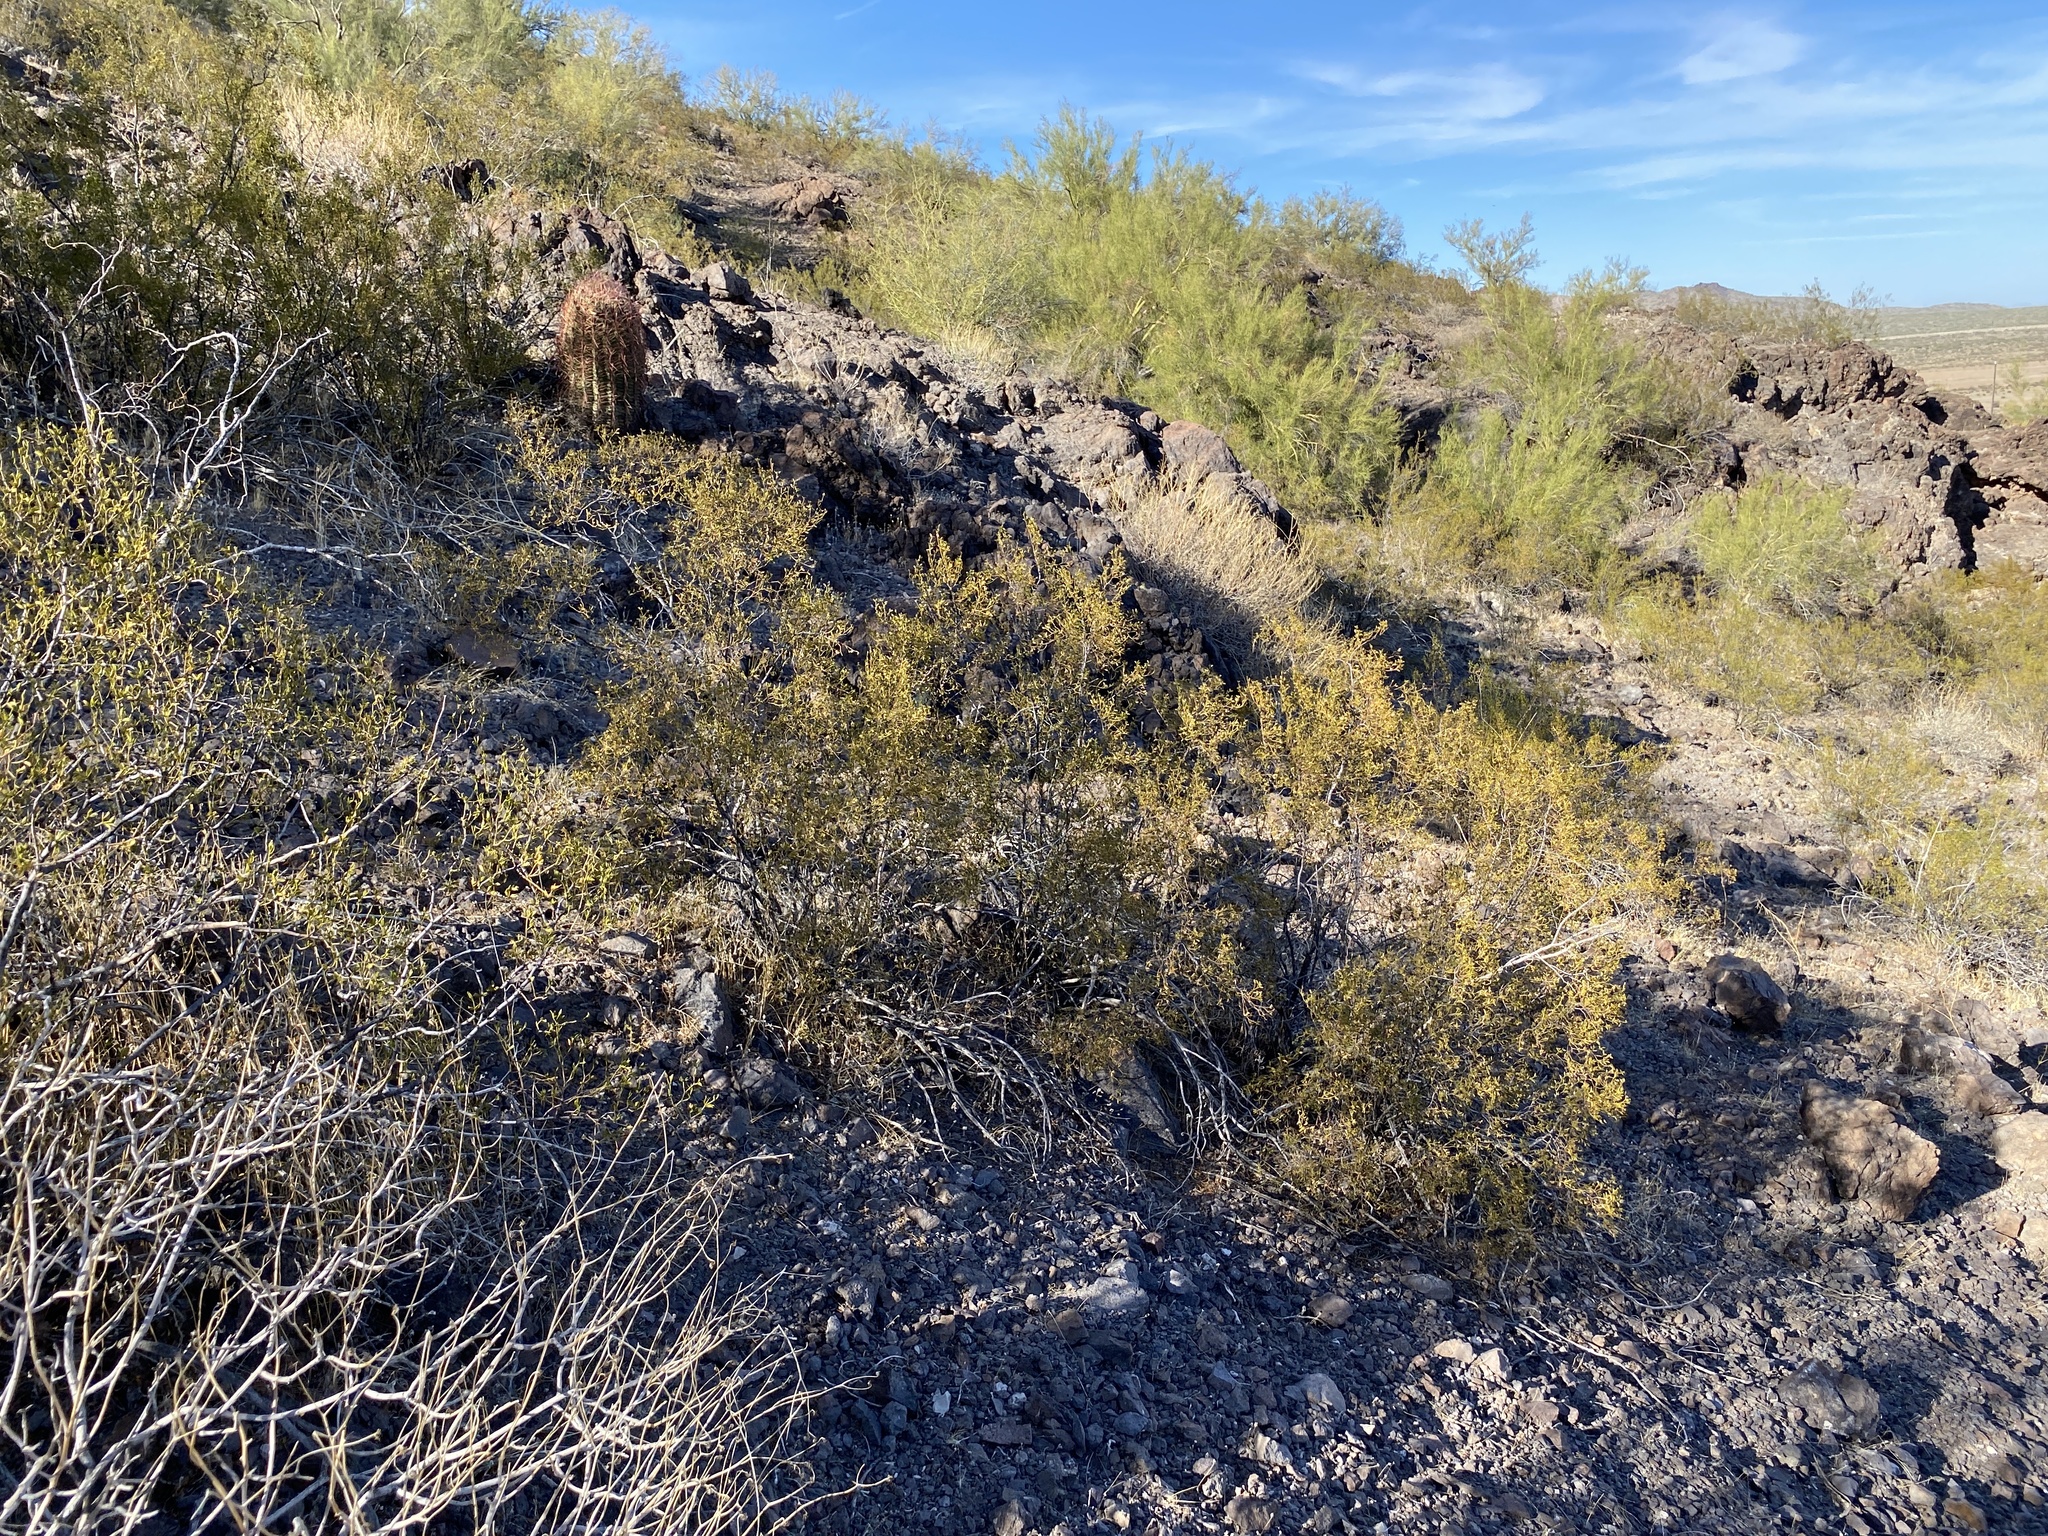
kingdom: Plantae
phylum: Tracheophyta
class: Magnoliopsida
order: Zygophyllales
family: Zygophyllaceae
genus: Larrea
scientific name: Larrea tridentata
